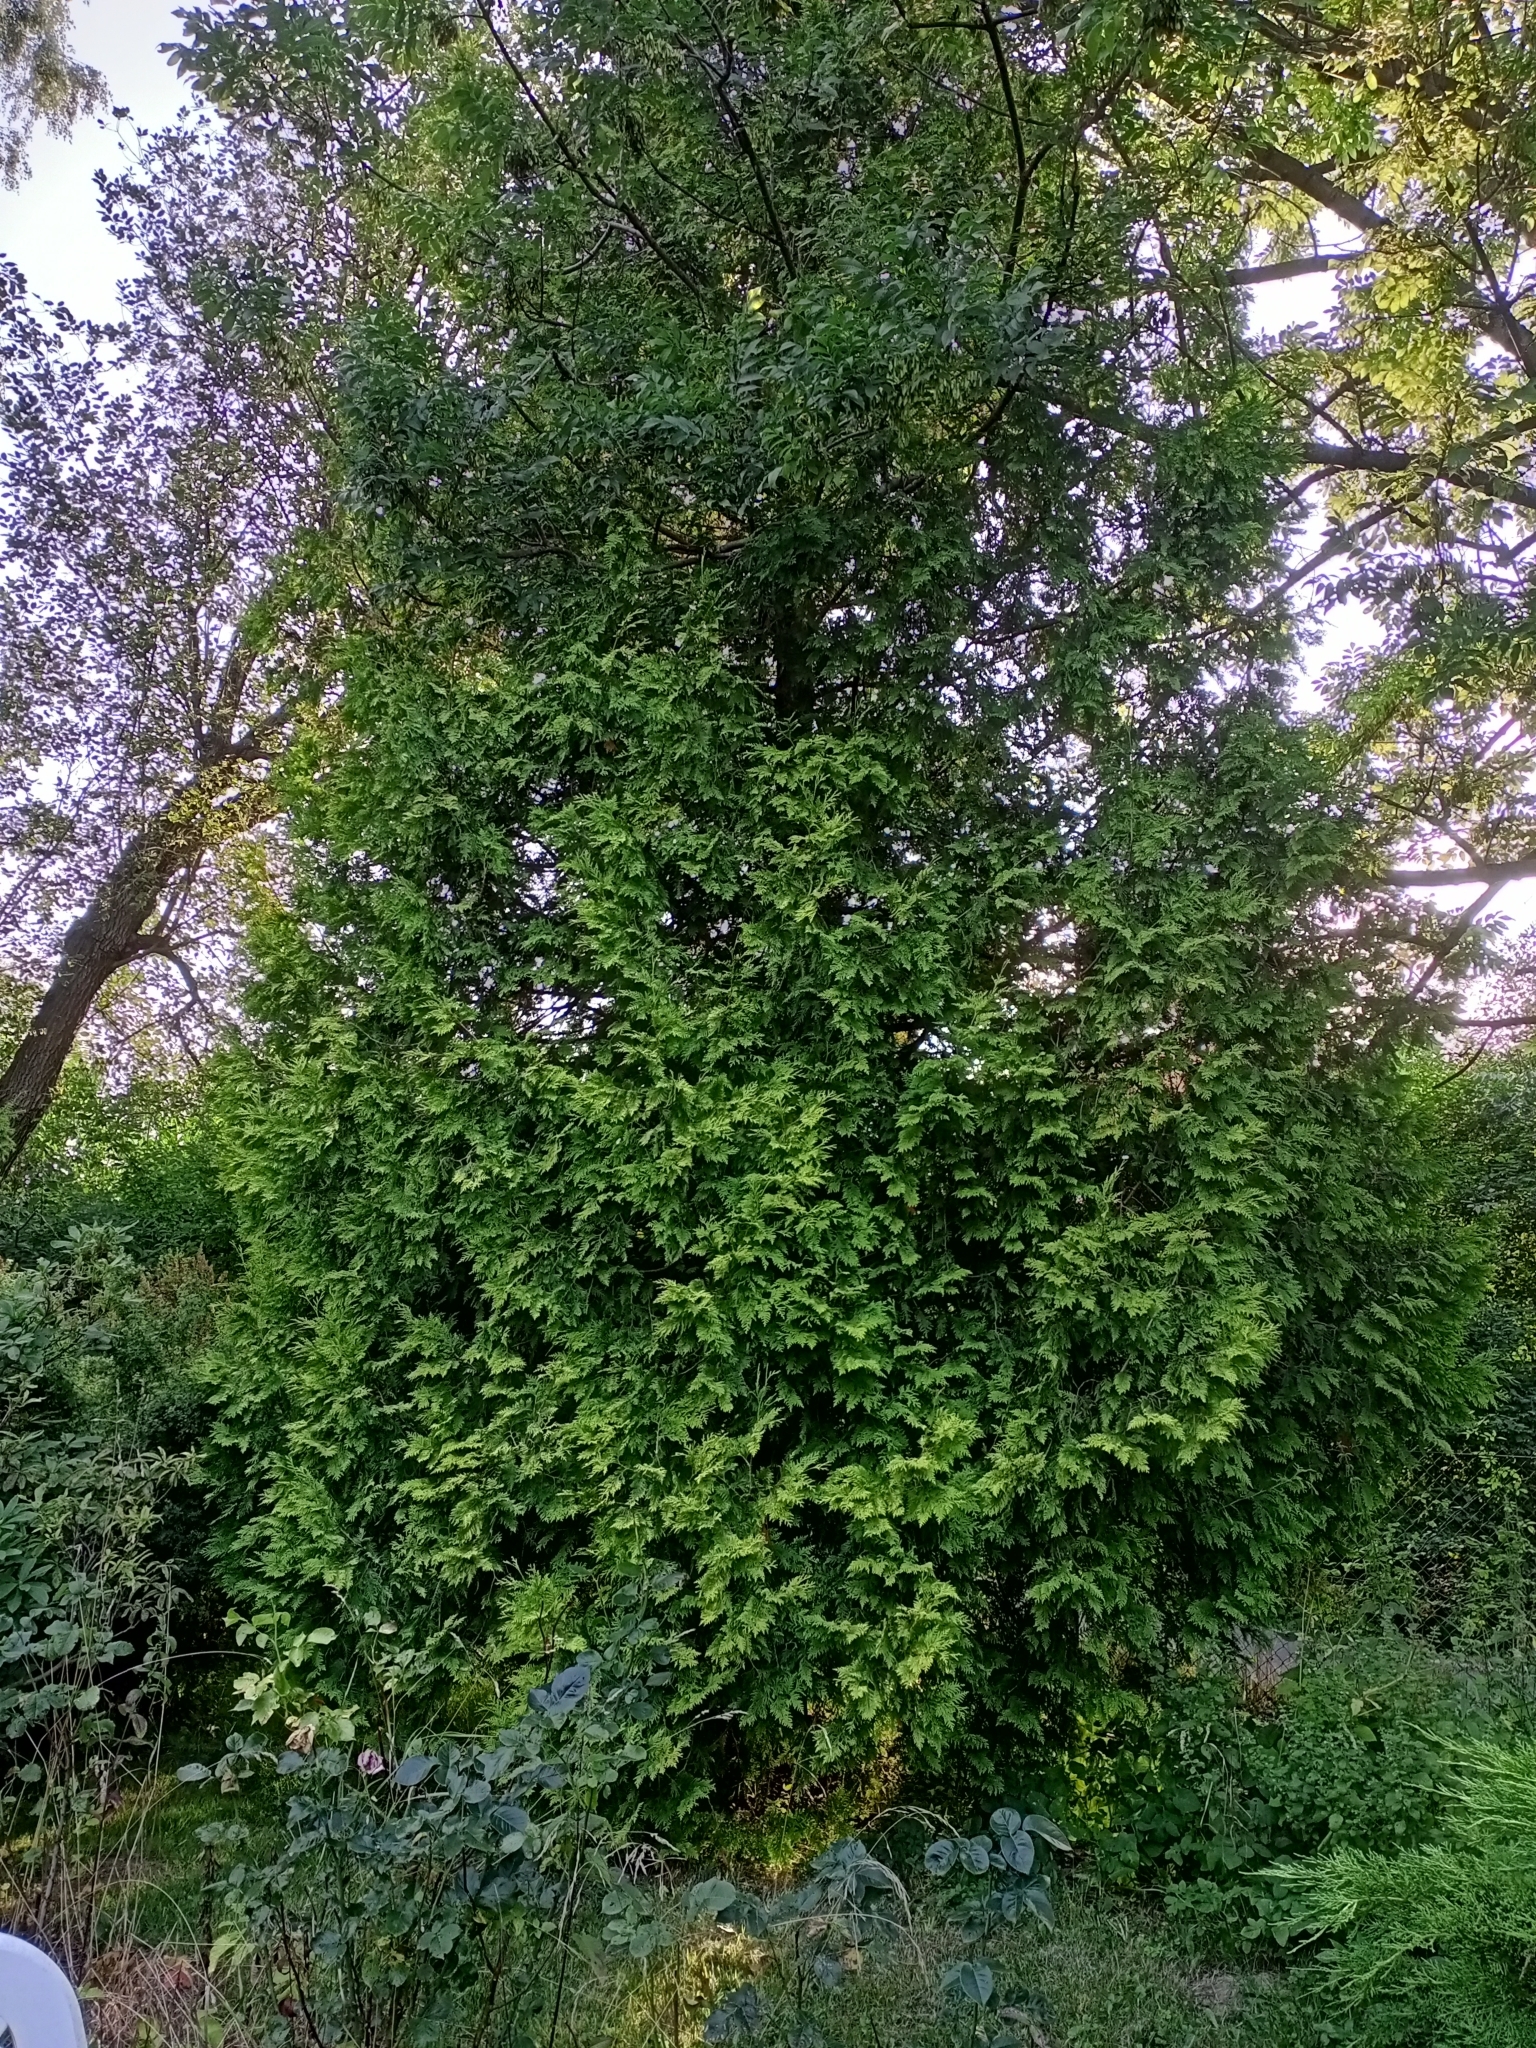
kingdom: Plantae
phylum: Tracheophyta
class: Pinopsida
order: Pinales
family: Cupressaceae
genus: Thuja
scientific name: Thuja occidentalis
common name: Northern white-cedar
